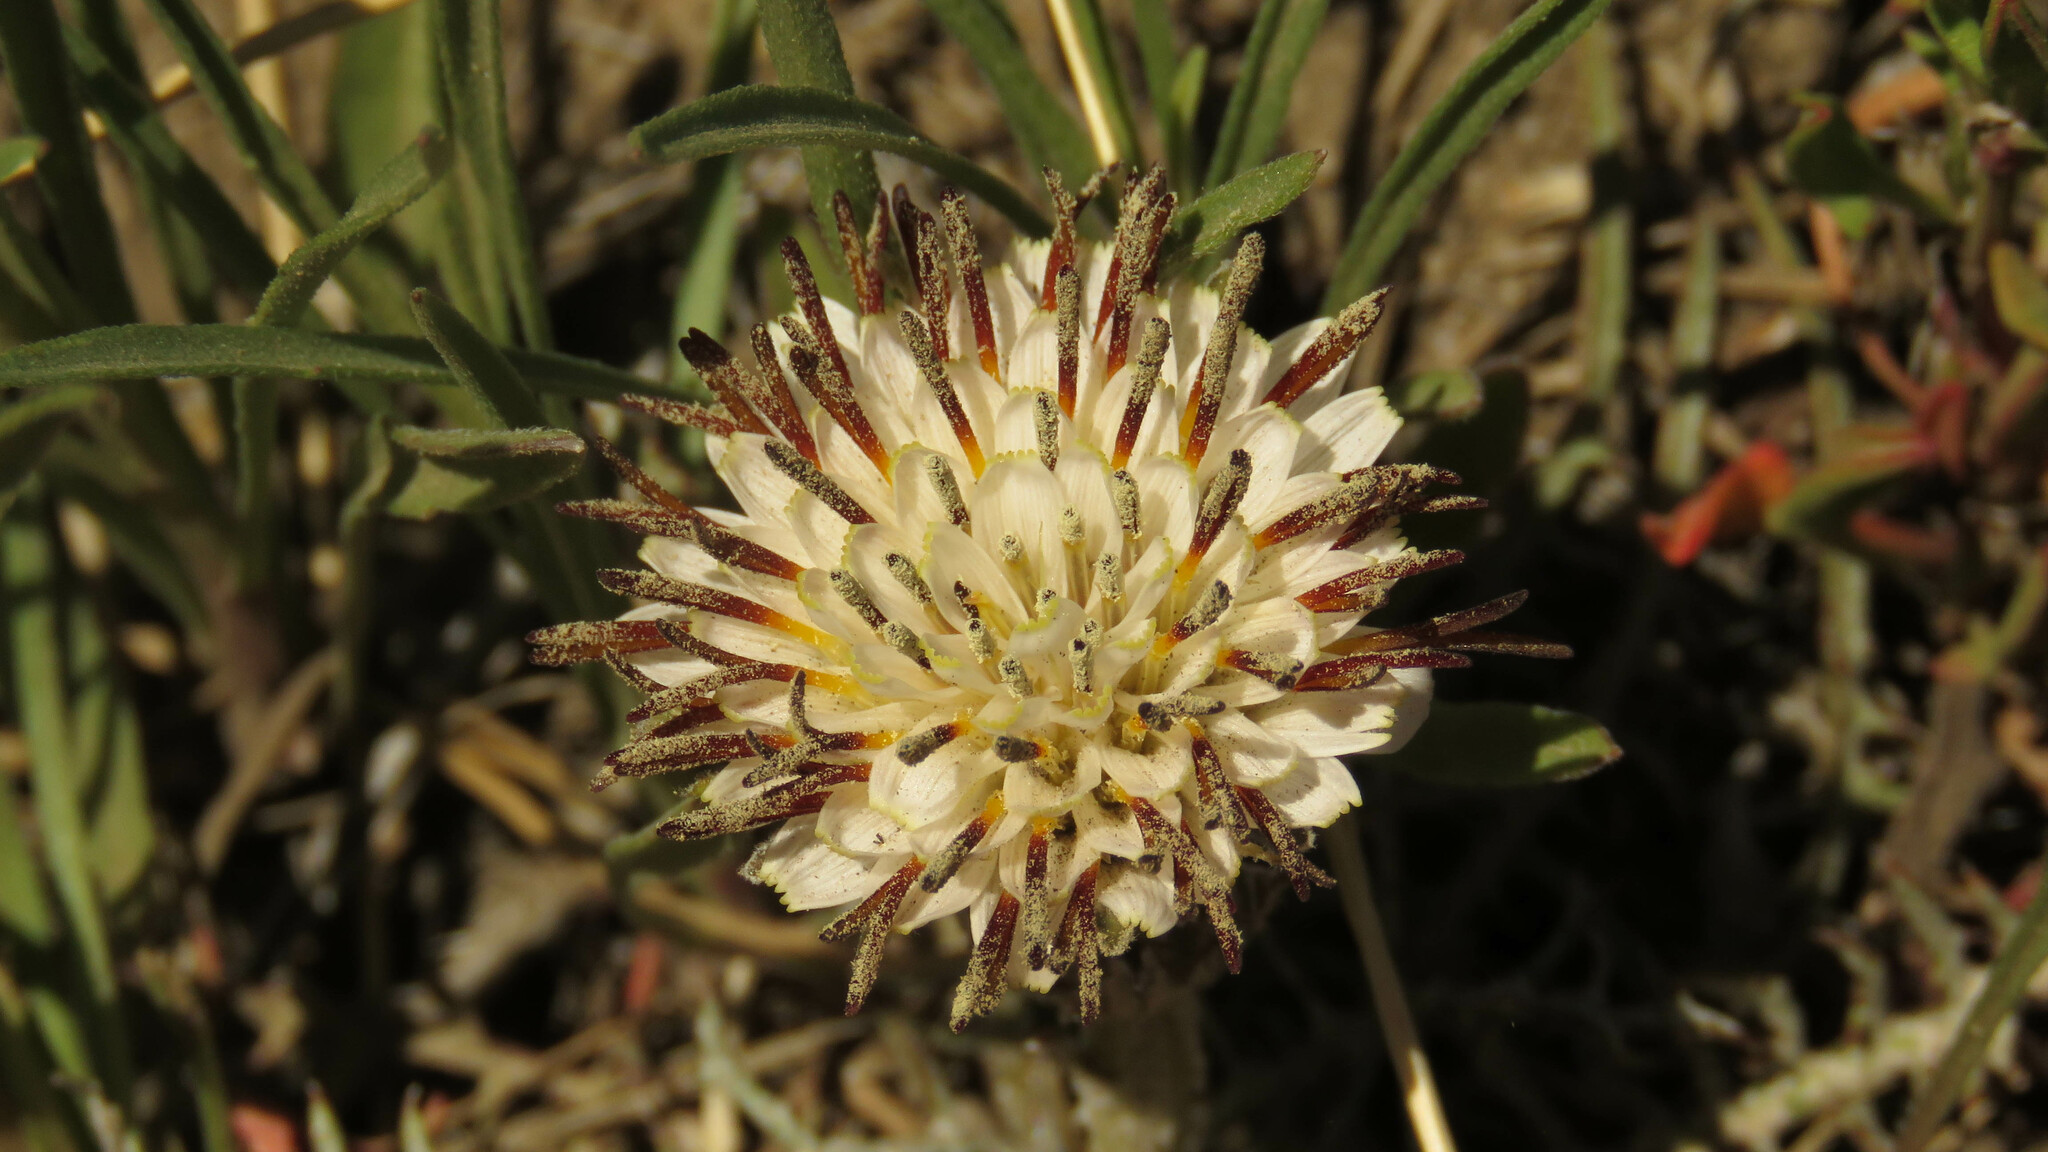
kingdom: Plantae
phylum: Tracheophyta
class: Magnoliopsida
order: Asterales
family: Asteraceae
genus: Hypochaeris
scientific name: Hypochaeris incana
